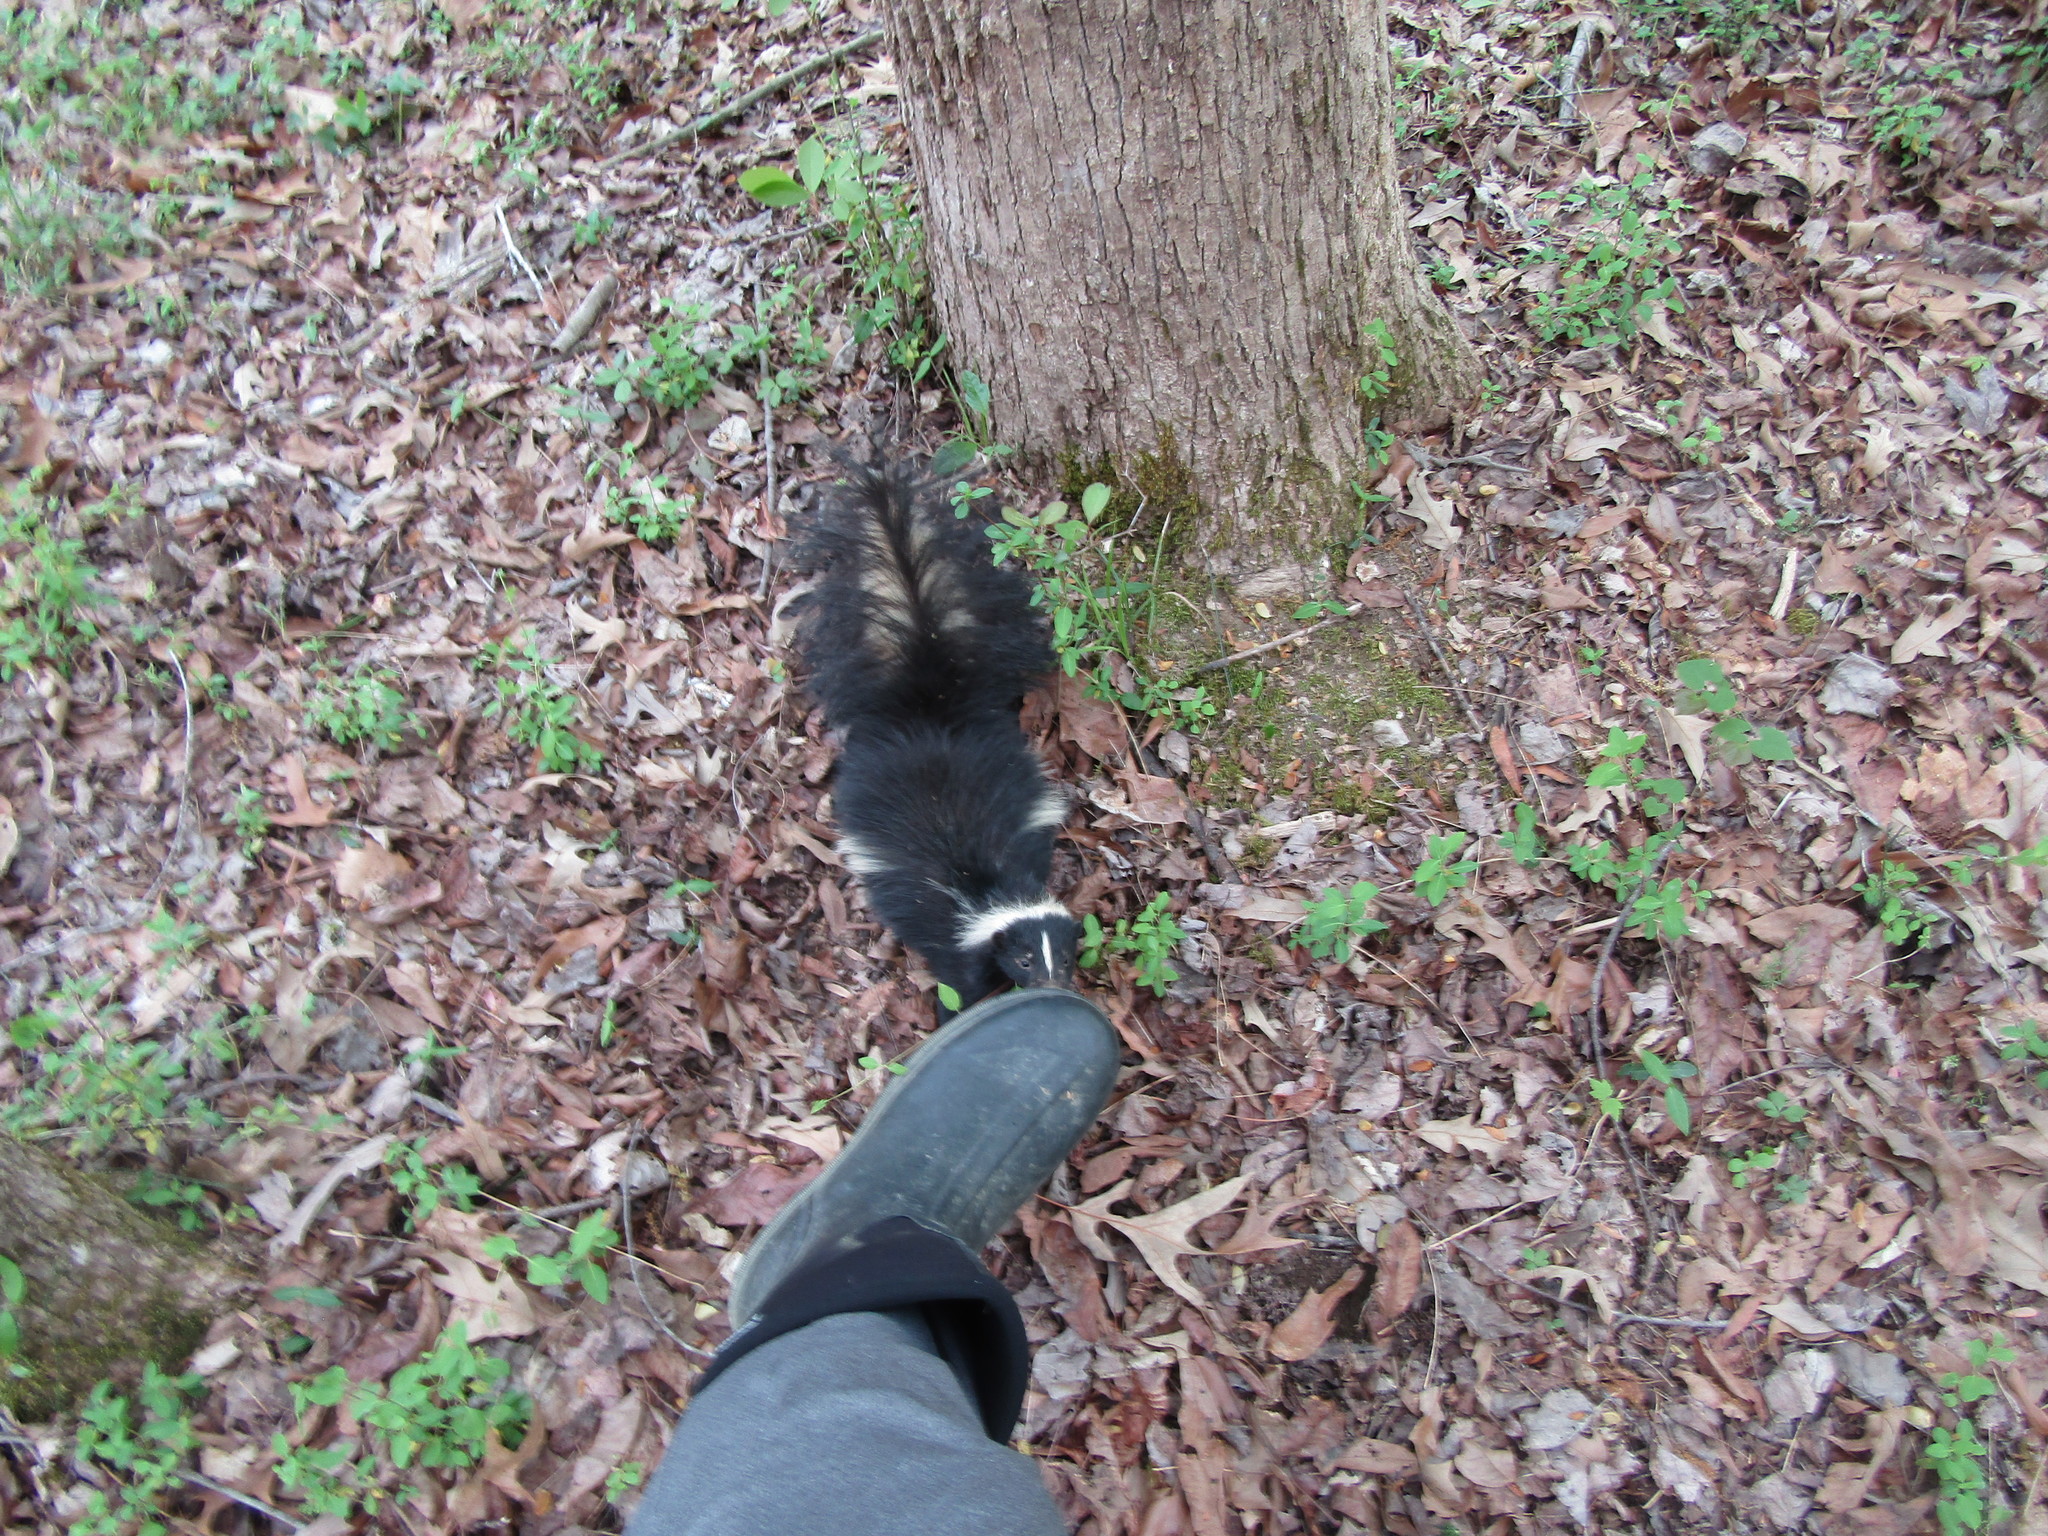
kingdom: Animalia
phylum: Chordata
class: Mammalia
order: Carnivora
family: Mephitidae
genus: Mephitis
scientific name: Mephitis mephitis
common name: Striped skunk
